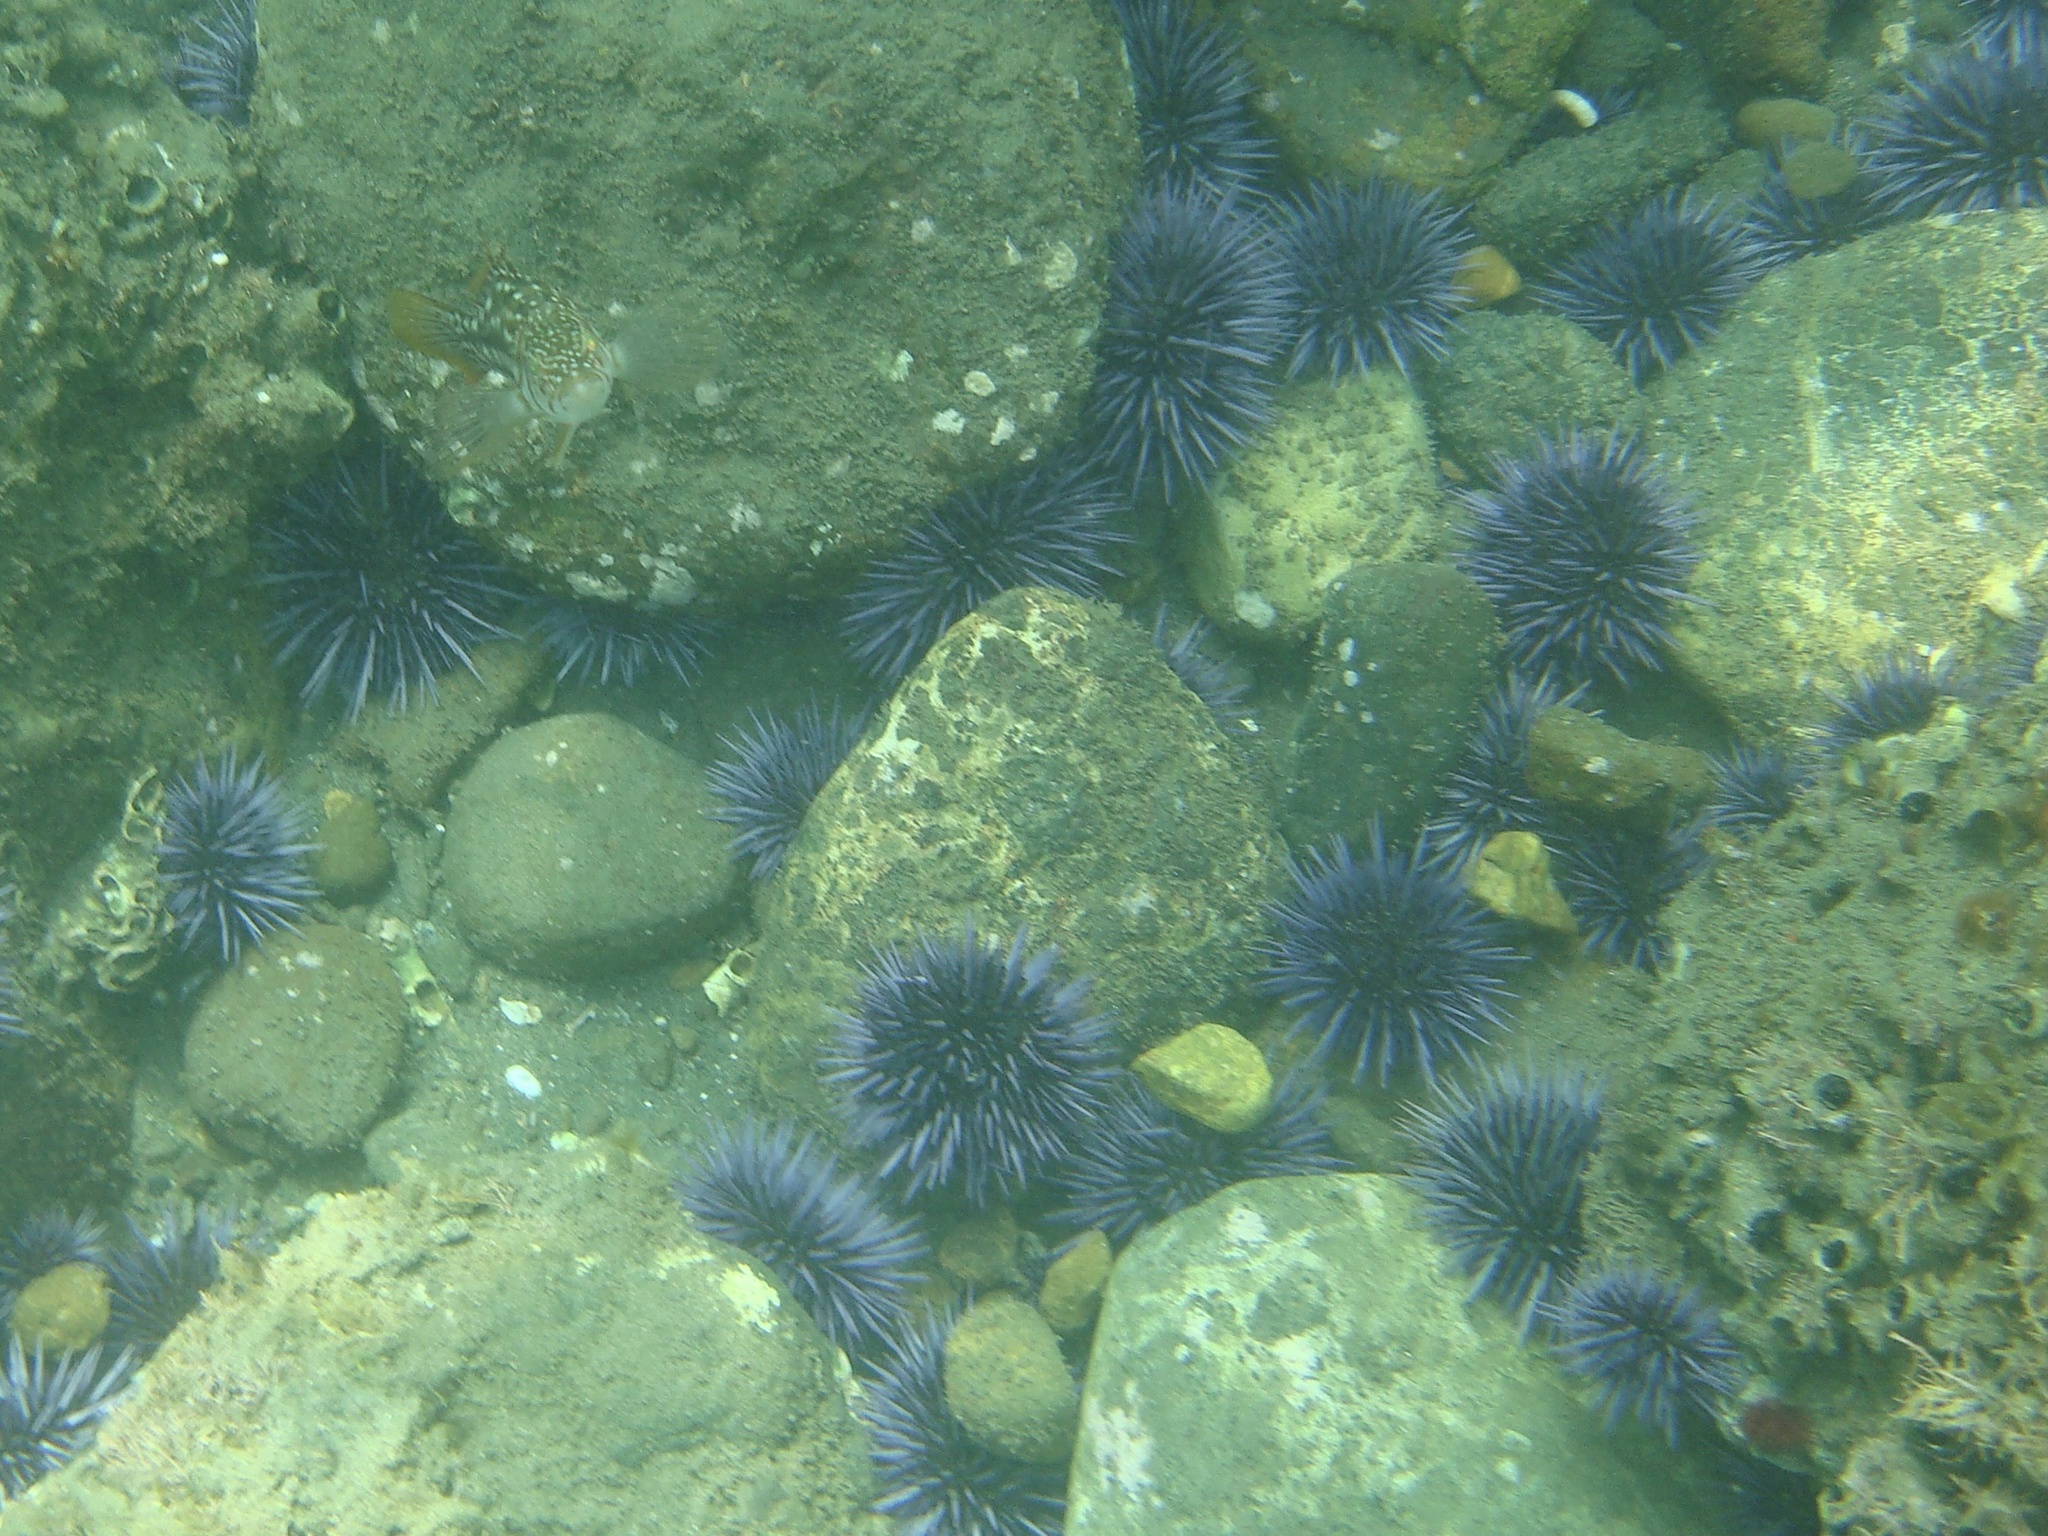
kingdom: Animalia
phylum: Echinodermata
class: Echinoidea
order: Camarodonta
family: Strongylocentrotidae
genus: Strongylocentrotus
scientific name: Strongylocentrotus purpuratus
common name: Purple sea urchin
